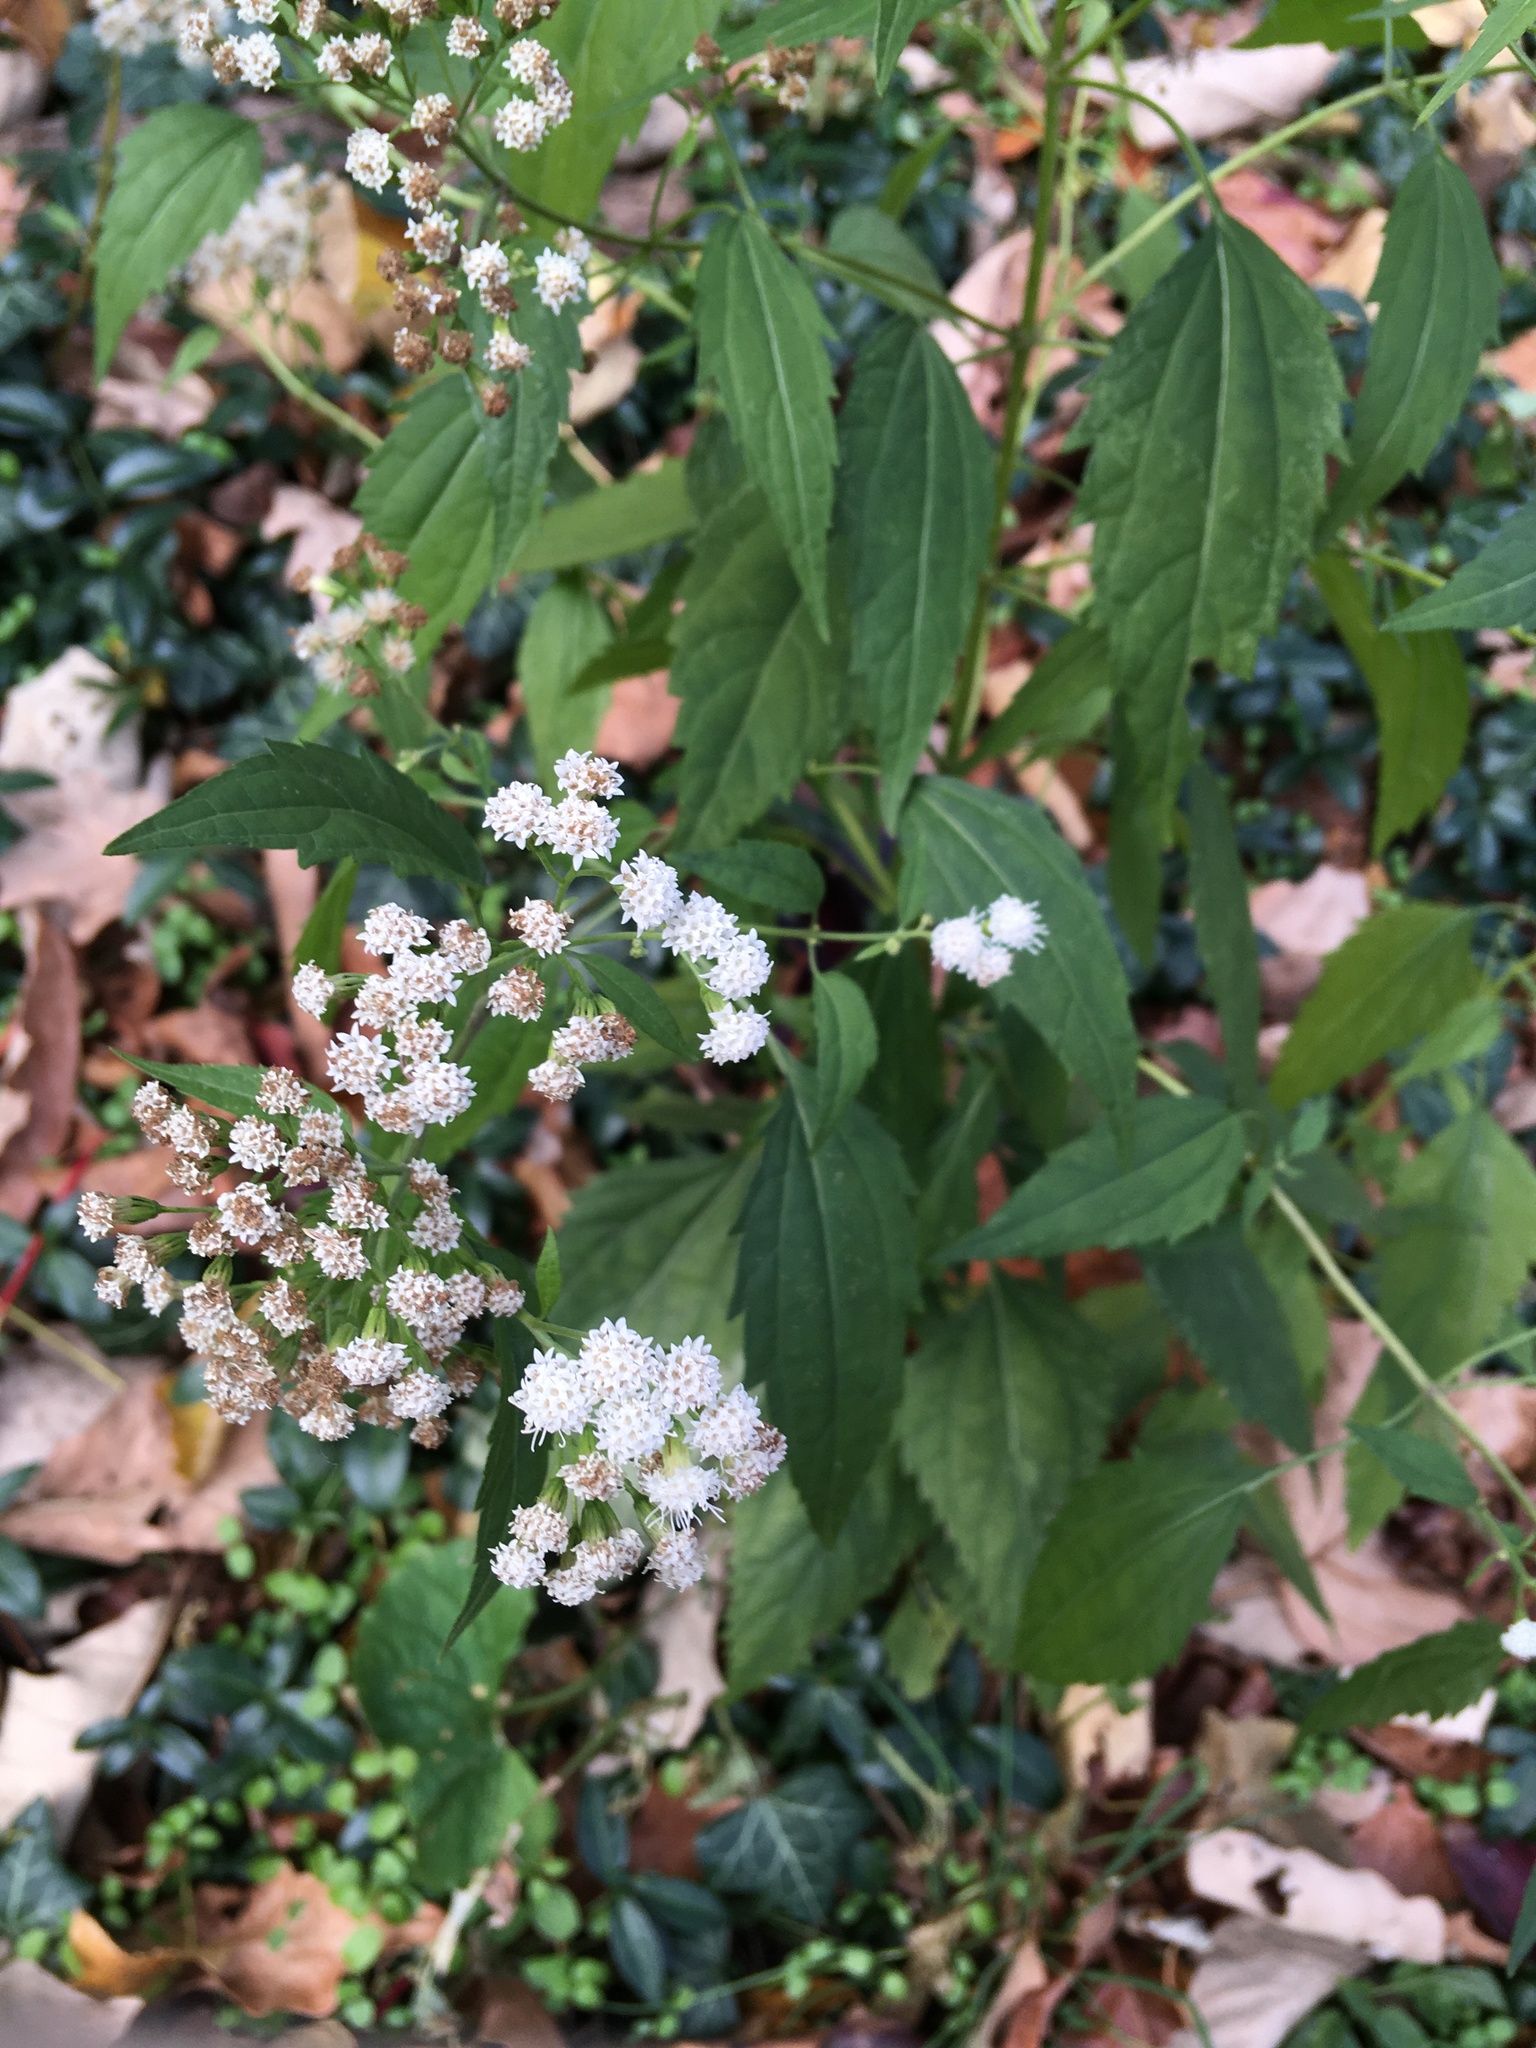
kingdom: Plantae
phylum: Tracheophyta
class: Magnoliopsida
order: Asterales
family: Asteraceae
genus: Ageratina
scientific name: Ageratina altissima
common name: White snakeroot
